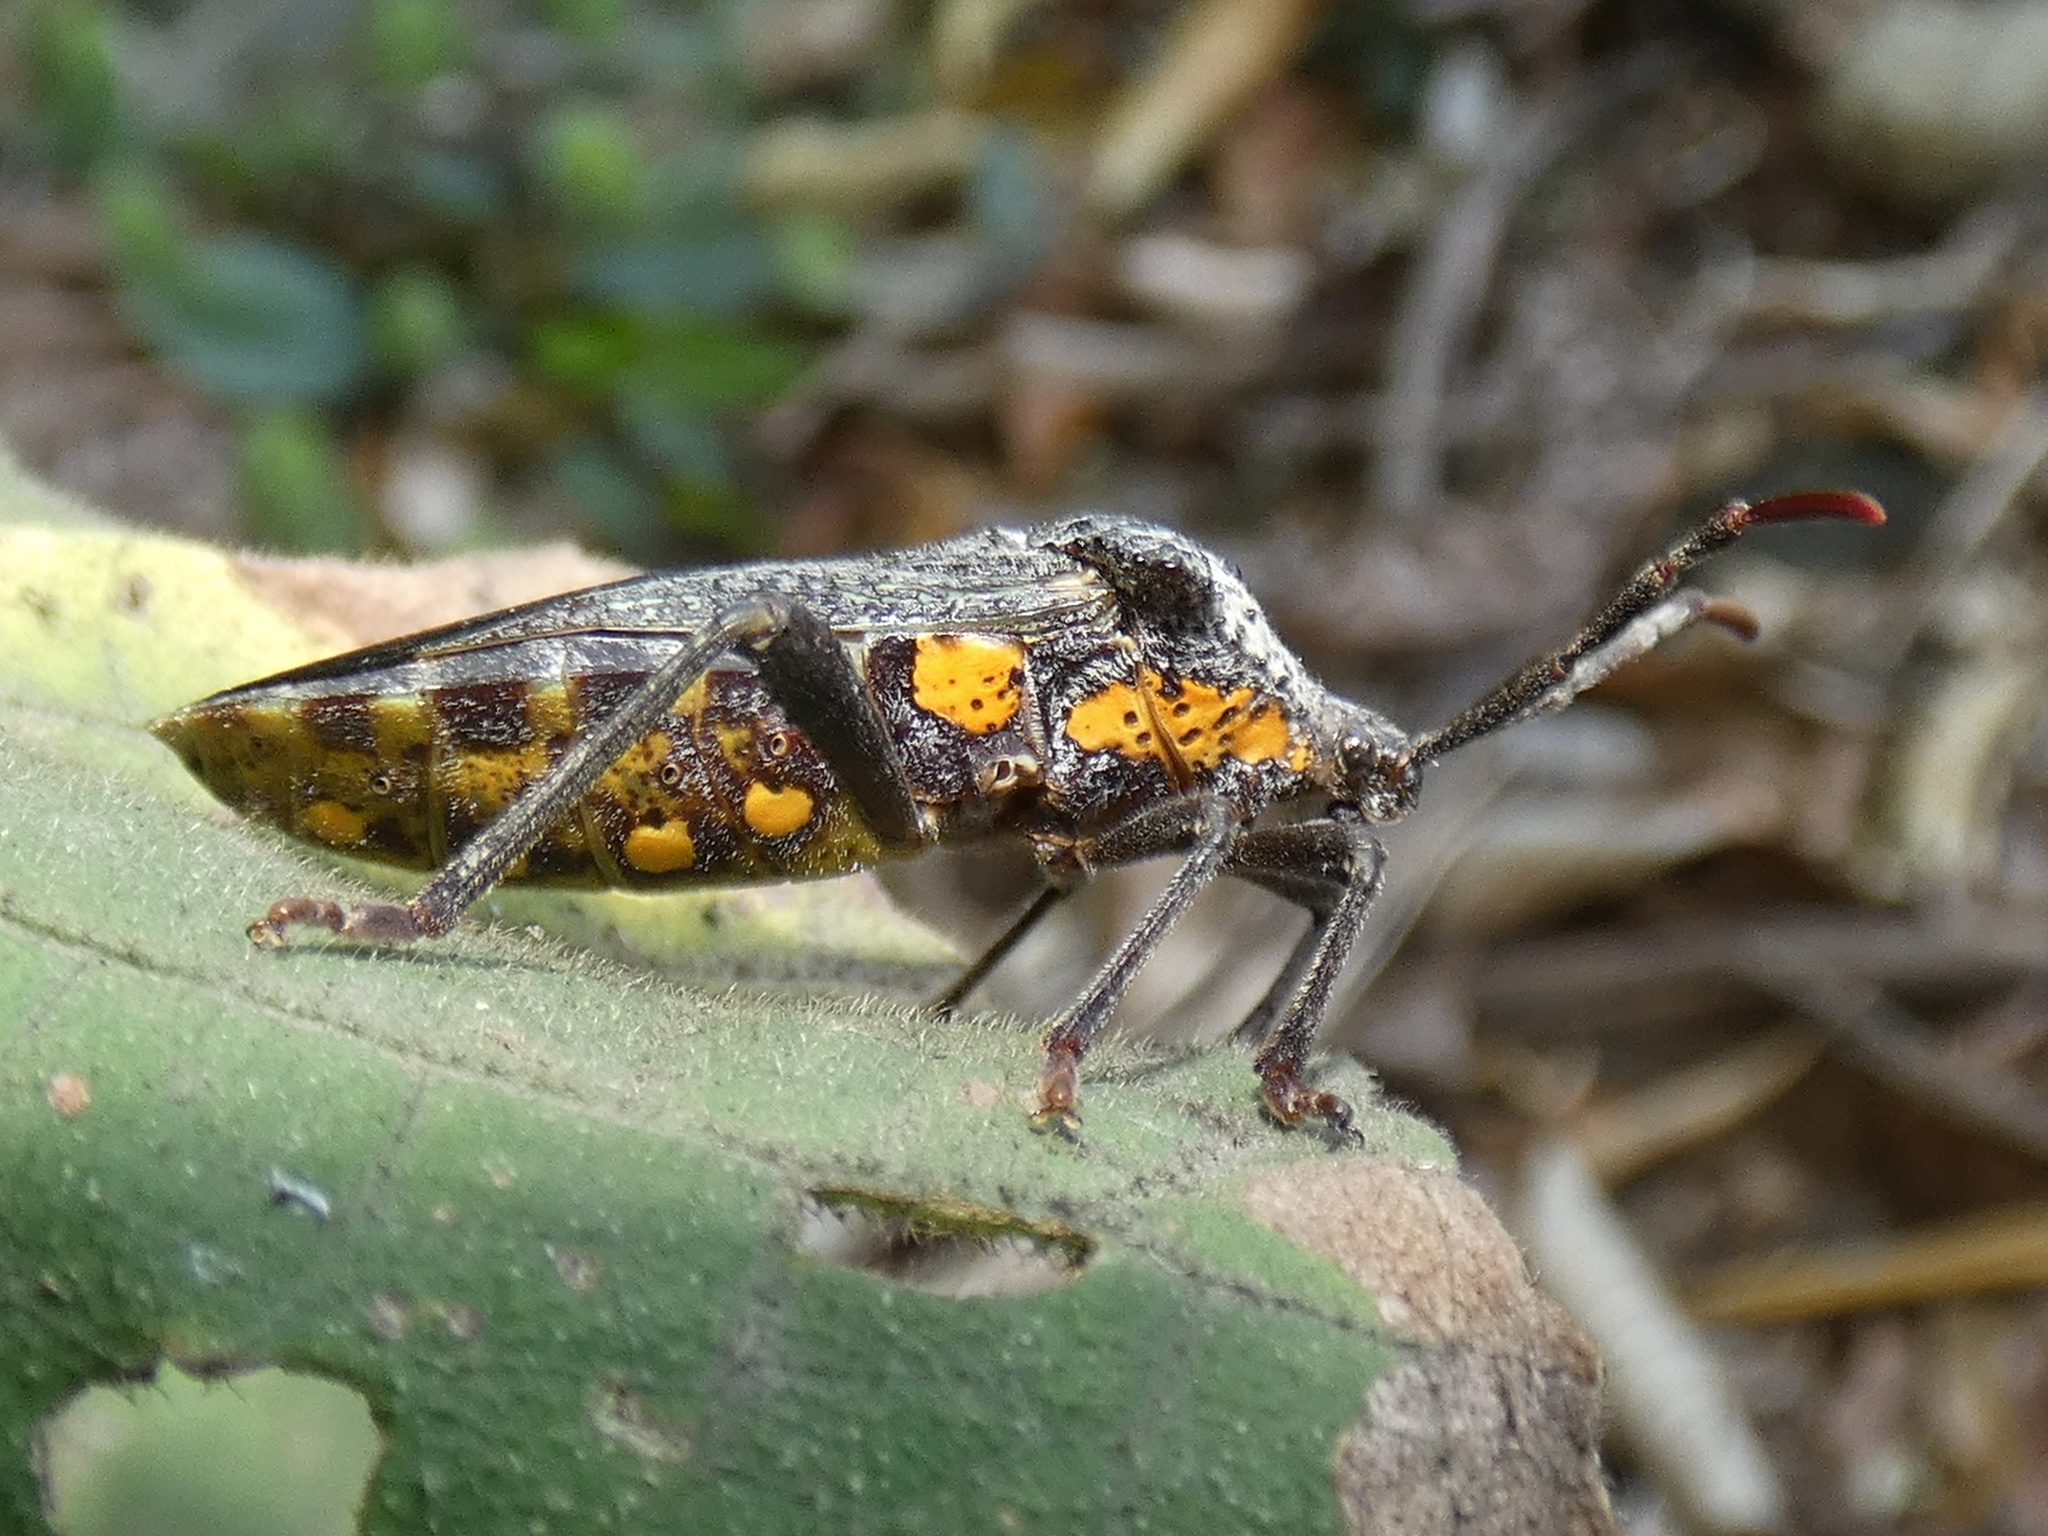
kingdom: Animalia
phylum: Arthropoda
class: Insecta
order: Hemiptera
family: Coreidae
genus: Piezogaster
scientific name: Piezogaster loricata
